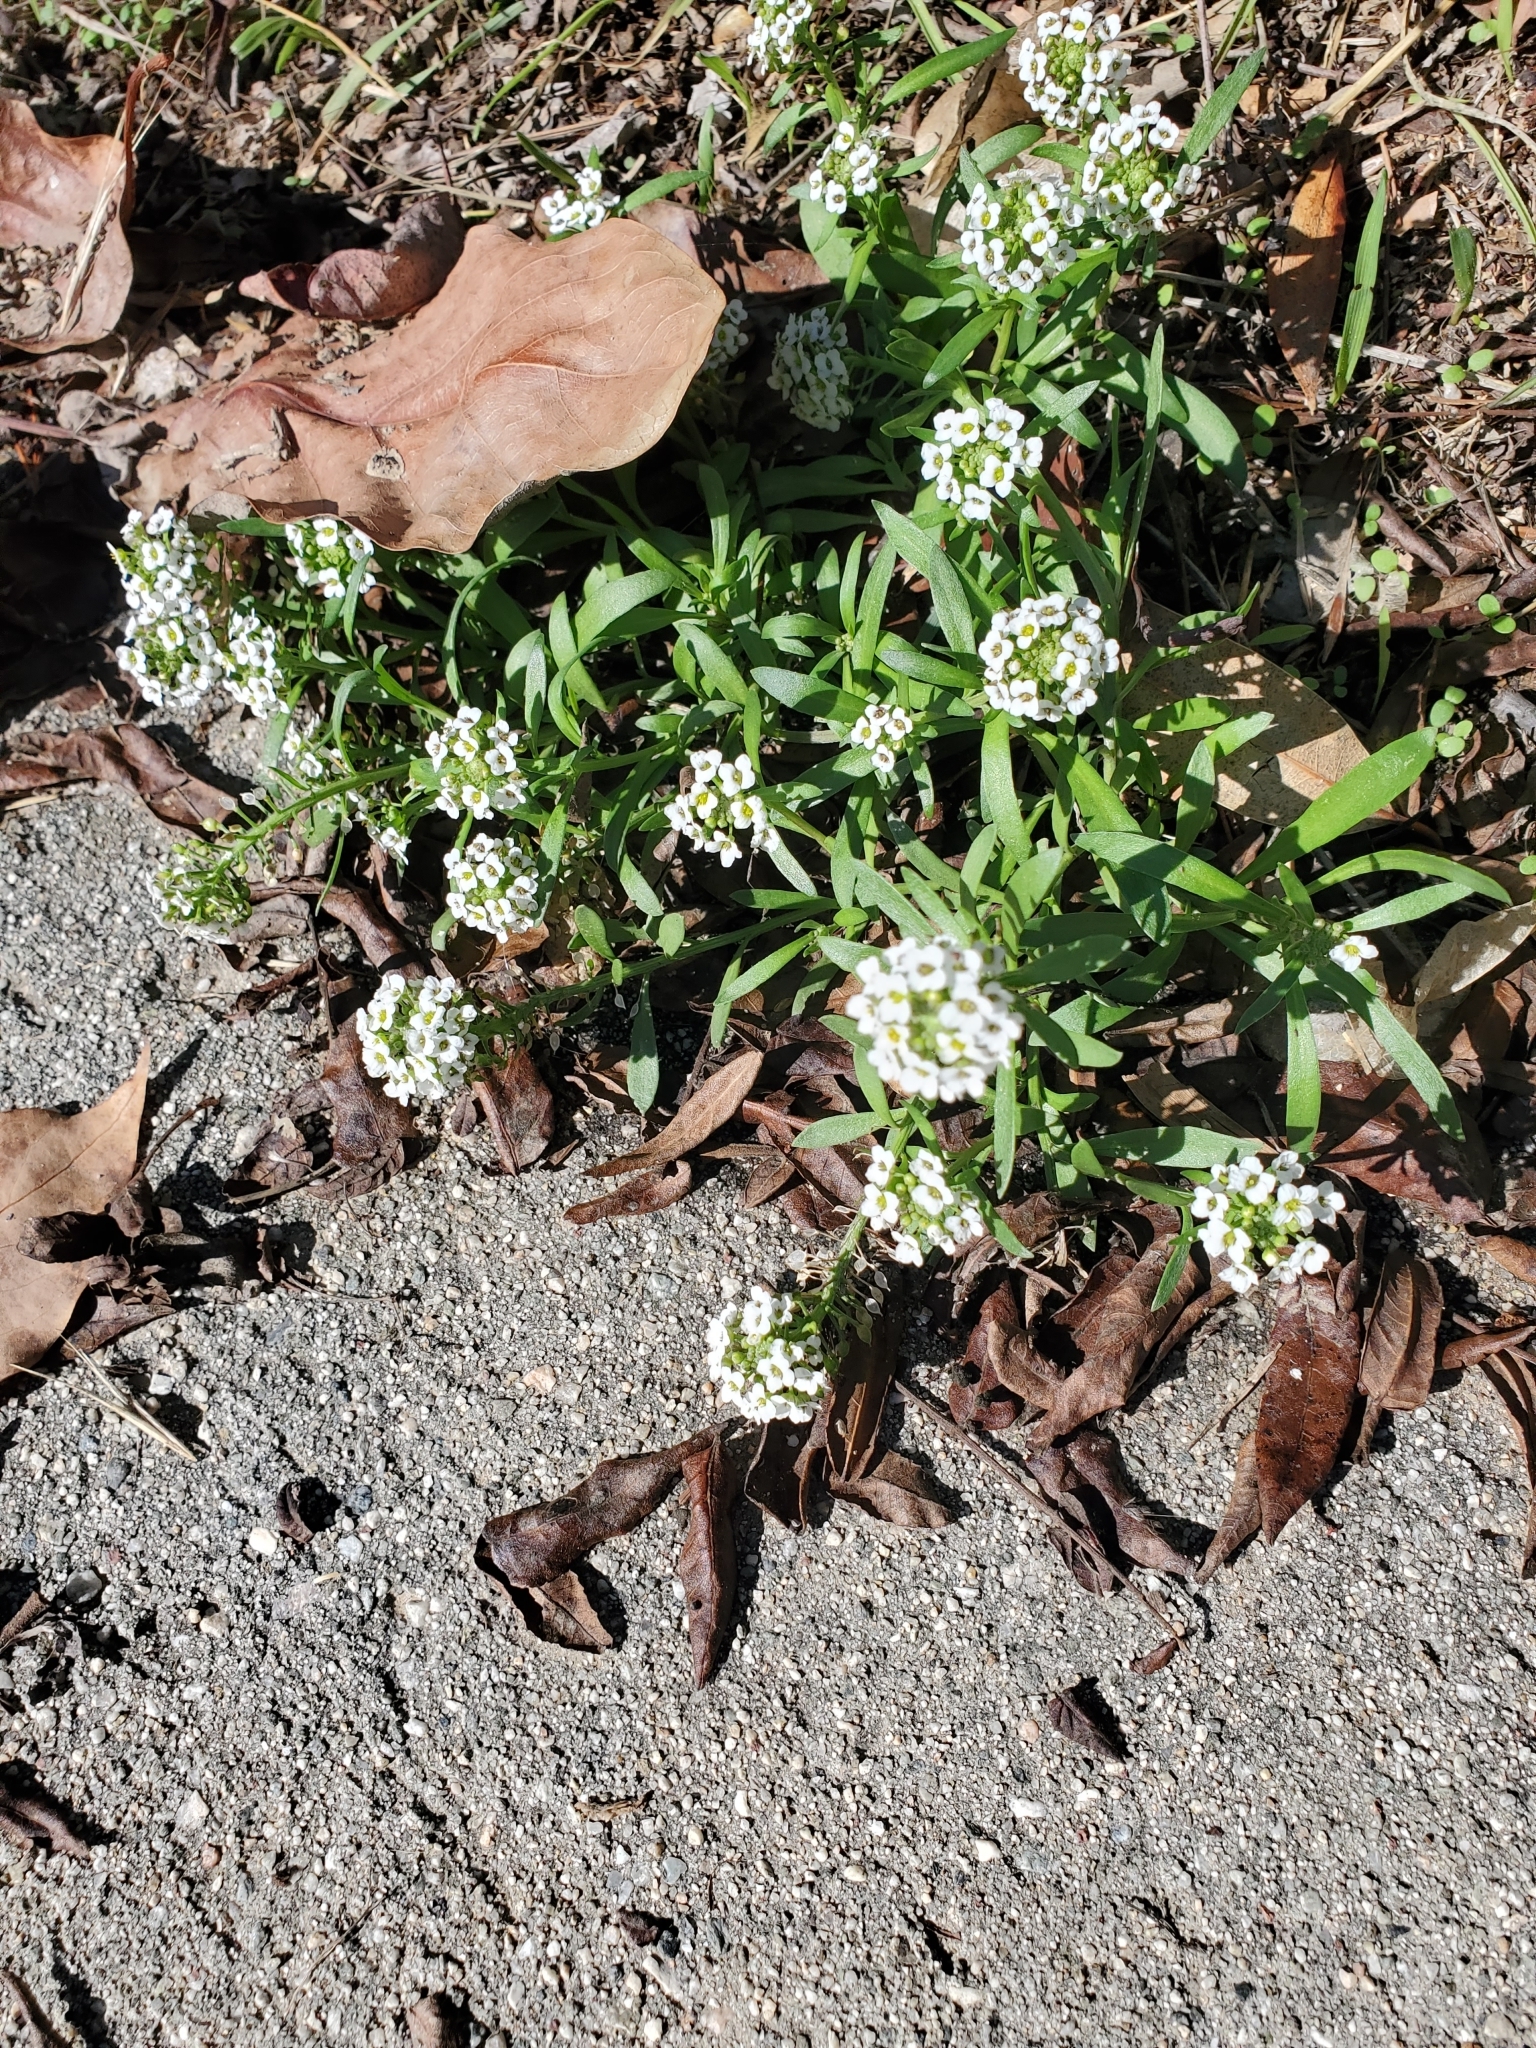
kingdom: Plantae
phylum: Tracheophyta
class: Magnoliopsida
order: Brassicales
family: Brassicaceae
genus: Lobularia
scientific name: Lobularia maritima
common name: Sweet alison
